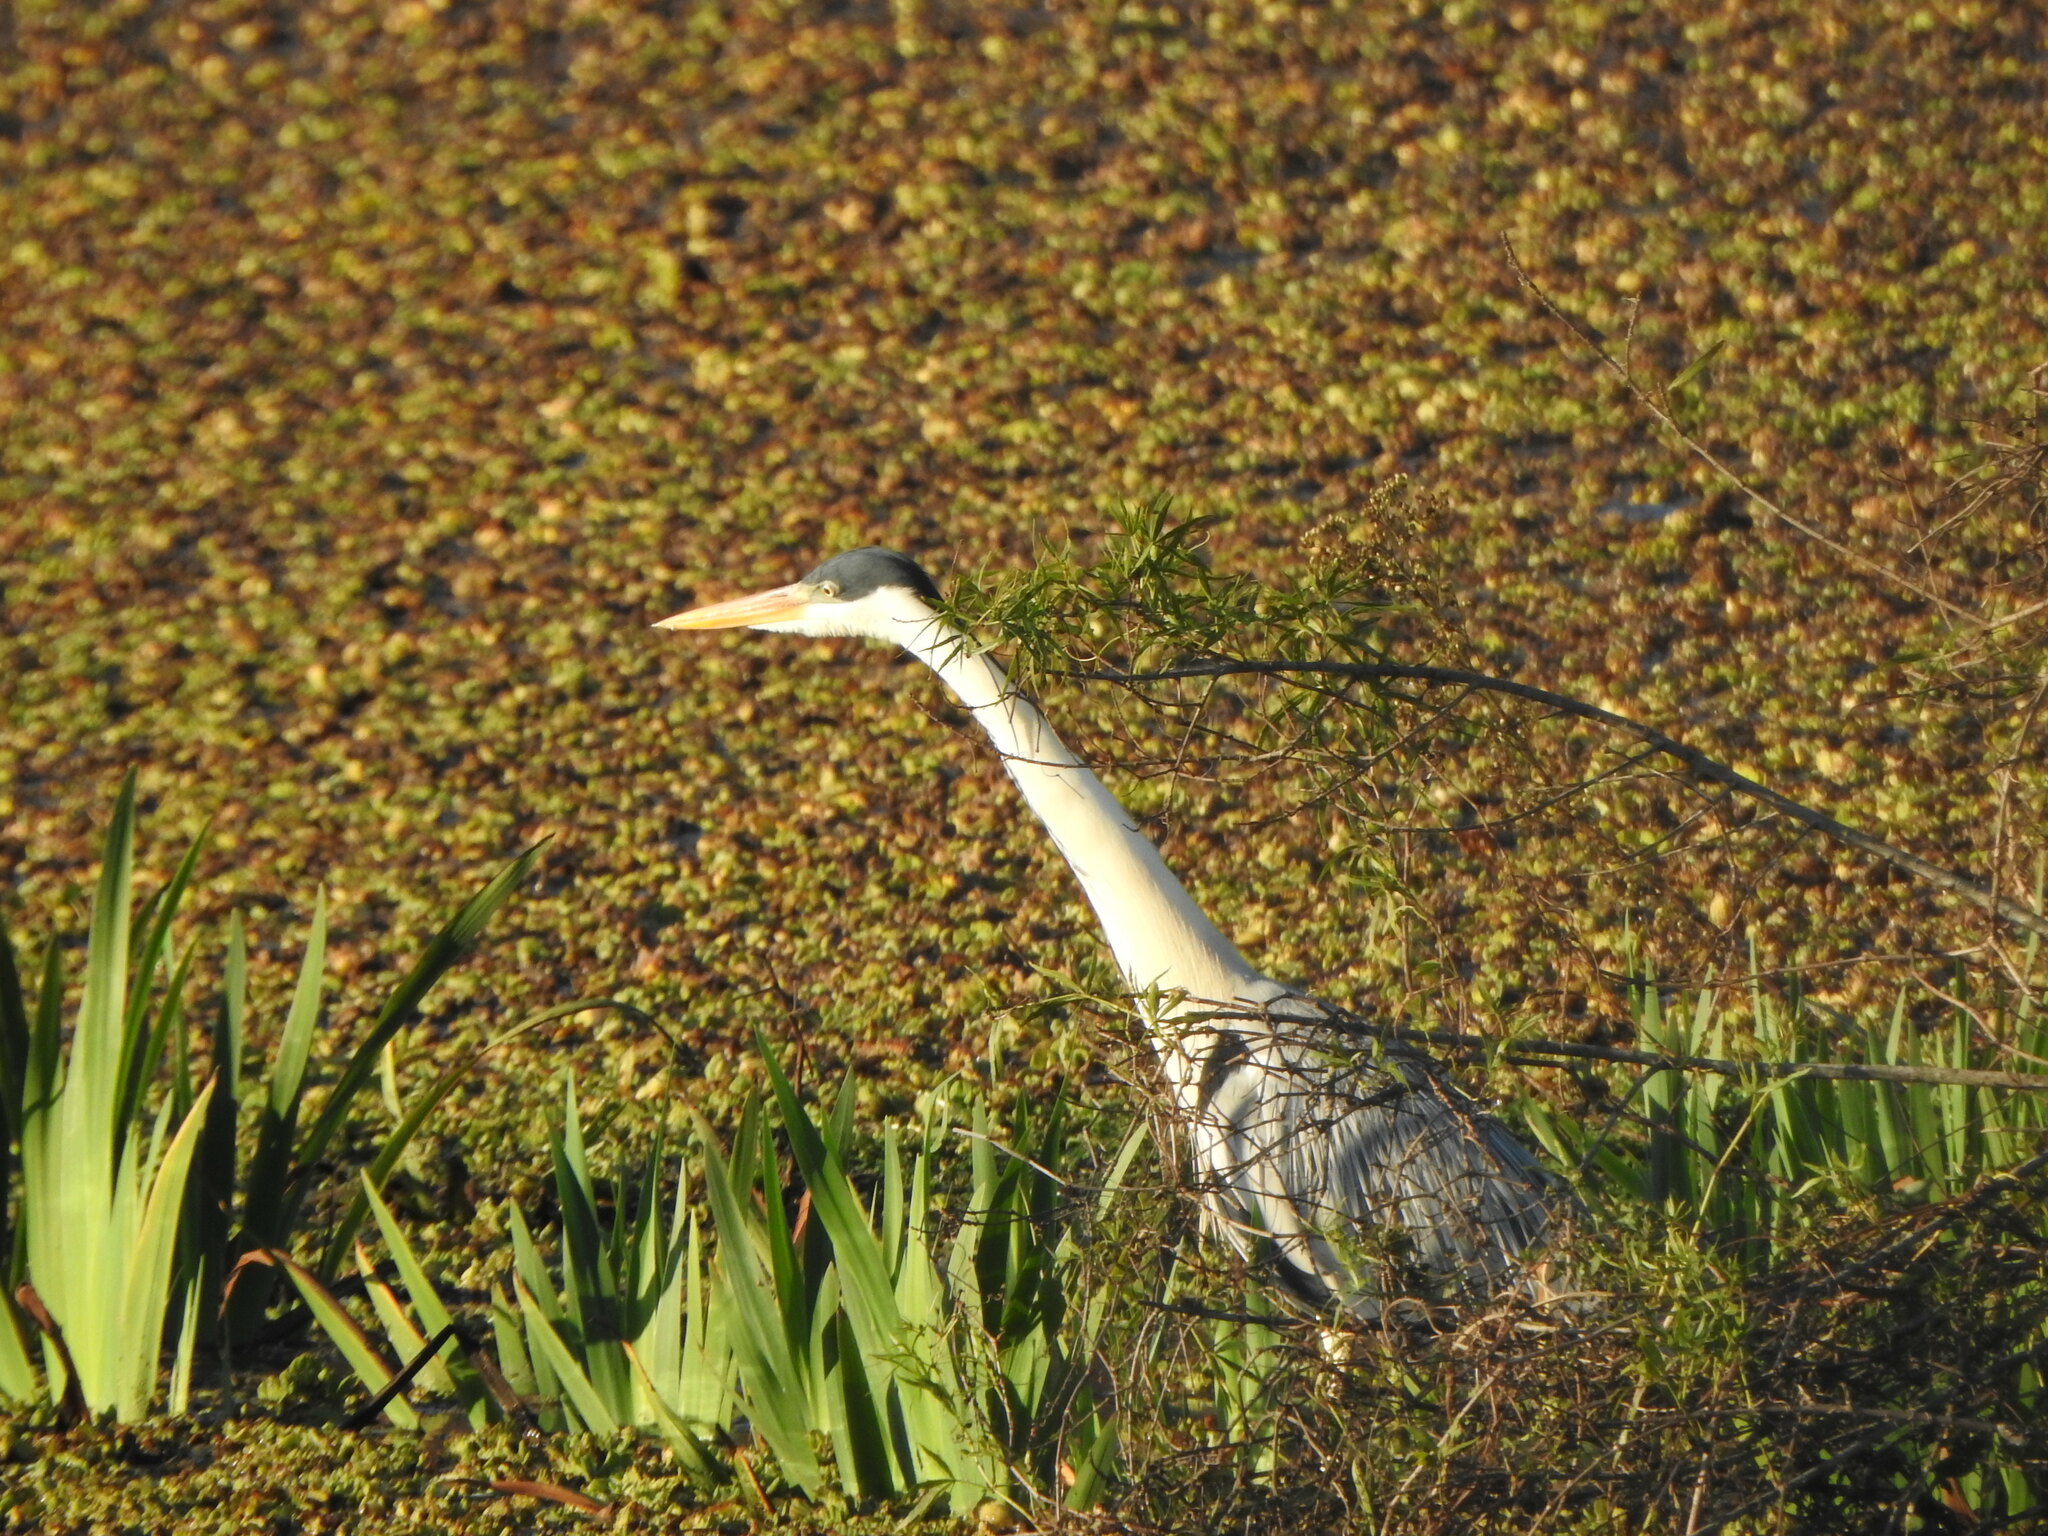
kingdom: Animalia
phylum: Chordata
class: Aves
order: Pelecaniformes
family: Ardeidae
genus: Ardea
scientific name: Ardea cocoi
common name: Cocoi heron
